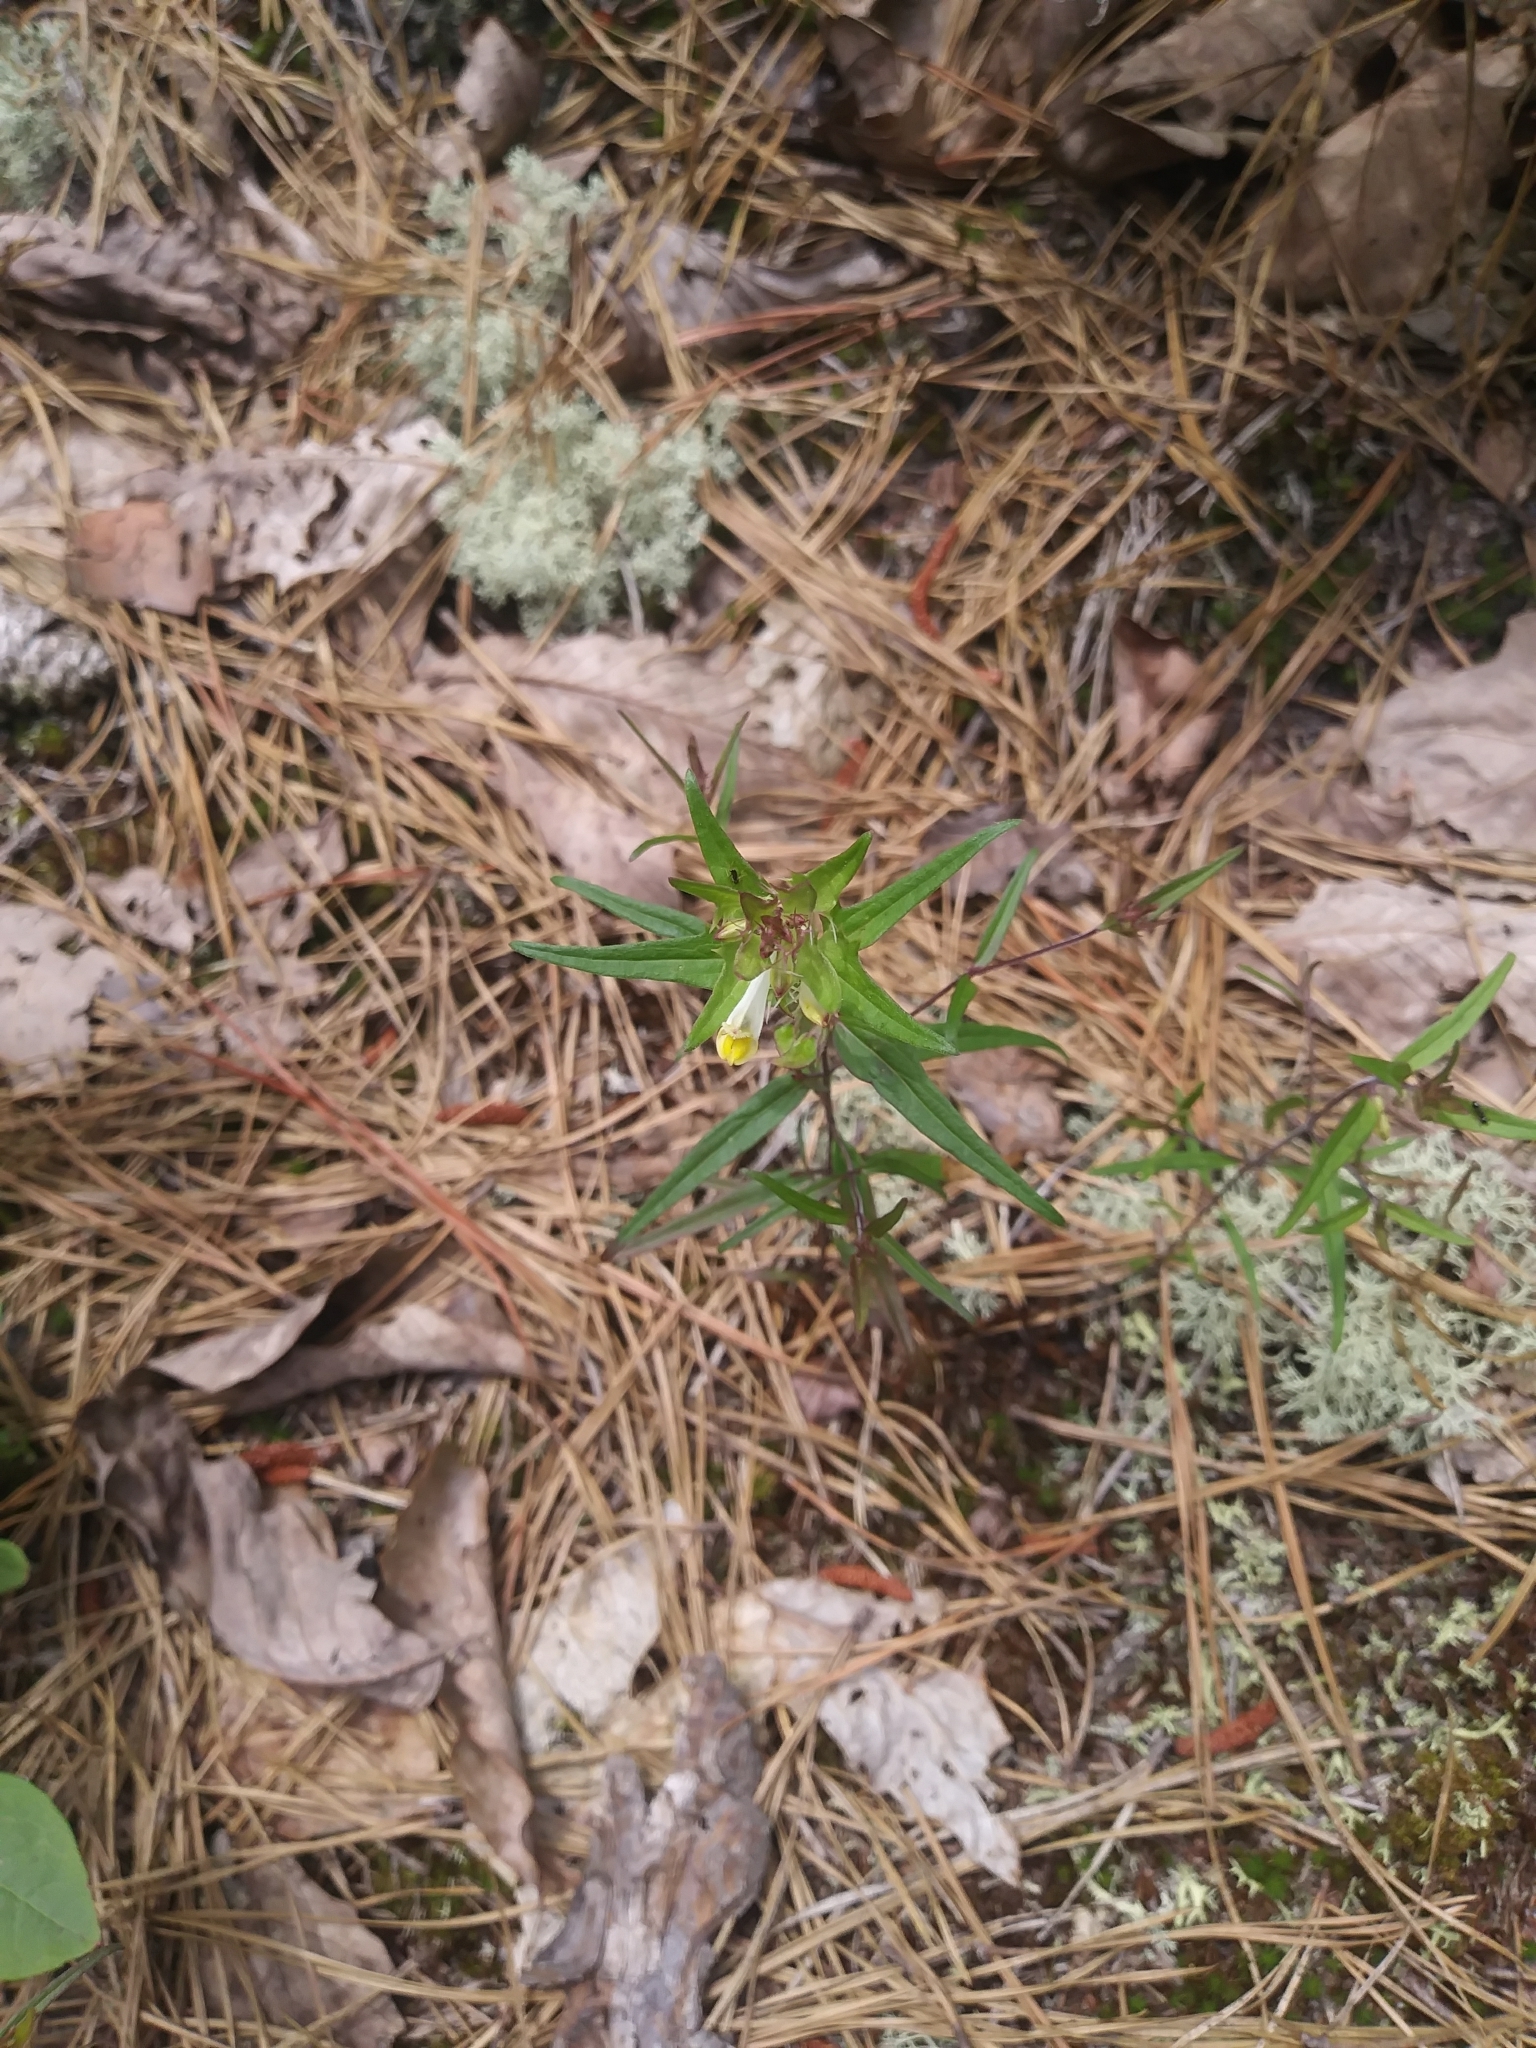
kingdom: Plantae
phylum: Tracheophyta
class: Magnoliopsida
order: Lamiales
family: Orobanchaceae
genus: Melampyrum
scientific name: Melampyrum lineare
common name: American cow-wheat
